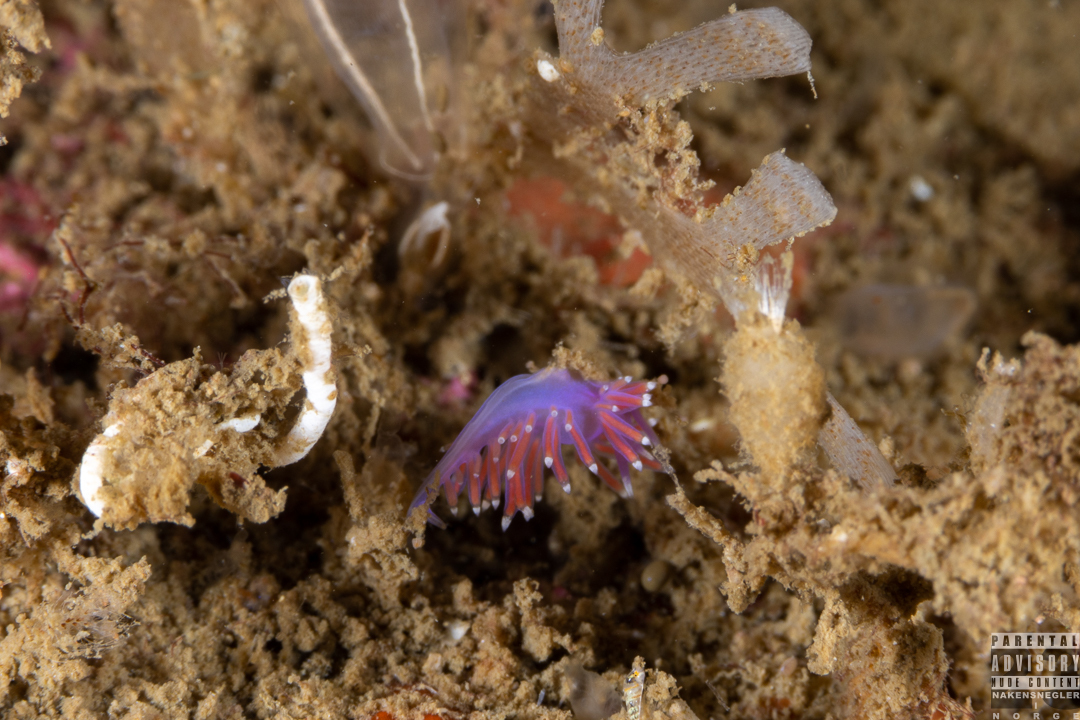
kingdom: Animalia
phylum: Mollusca
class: Gastropoda
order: Nudibranchia
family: Flabellinidae
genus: Edmundsella
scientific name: Edmundsella pedata
